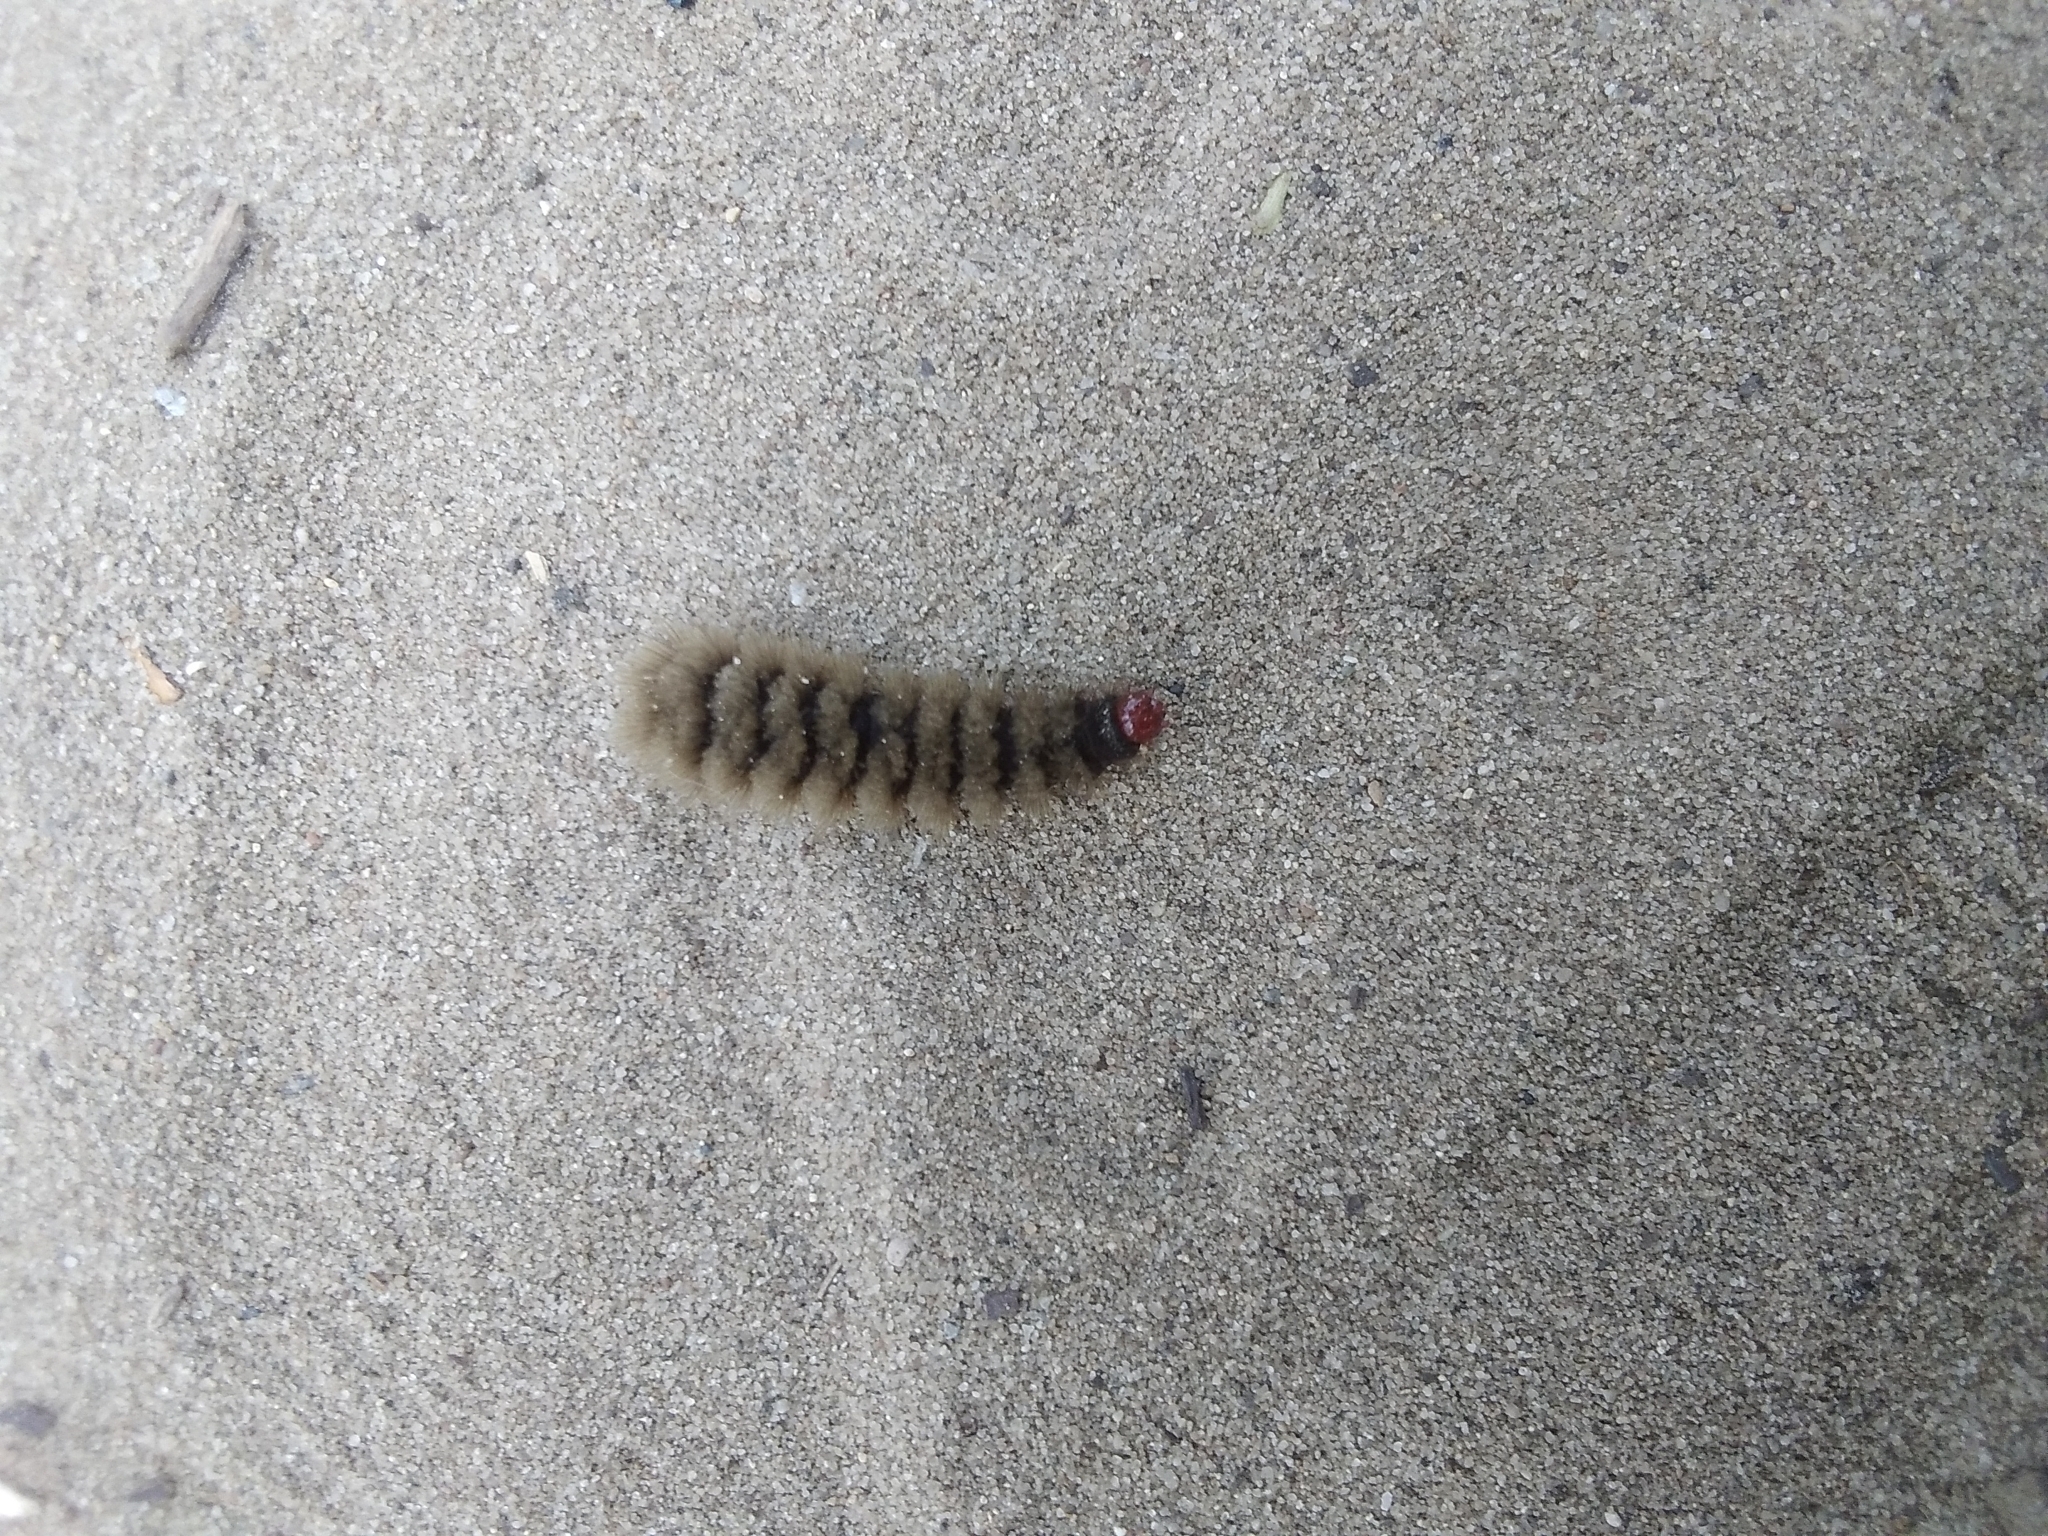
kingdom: Animalia
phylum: Arthropoda
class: Insecta
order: Lepidoptera
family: Erebidae
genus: Amata
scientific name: Amata phegea
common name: Nine-spotted
